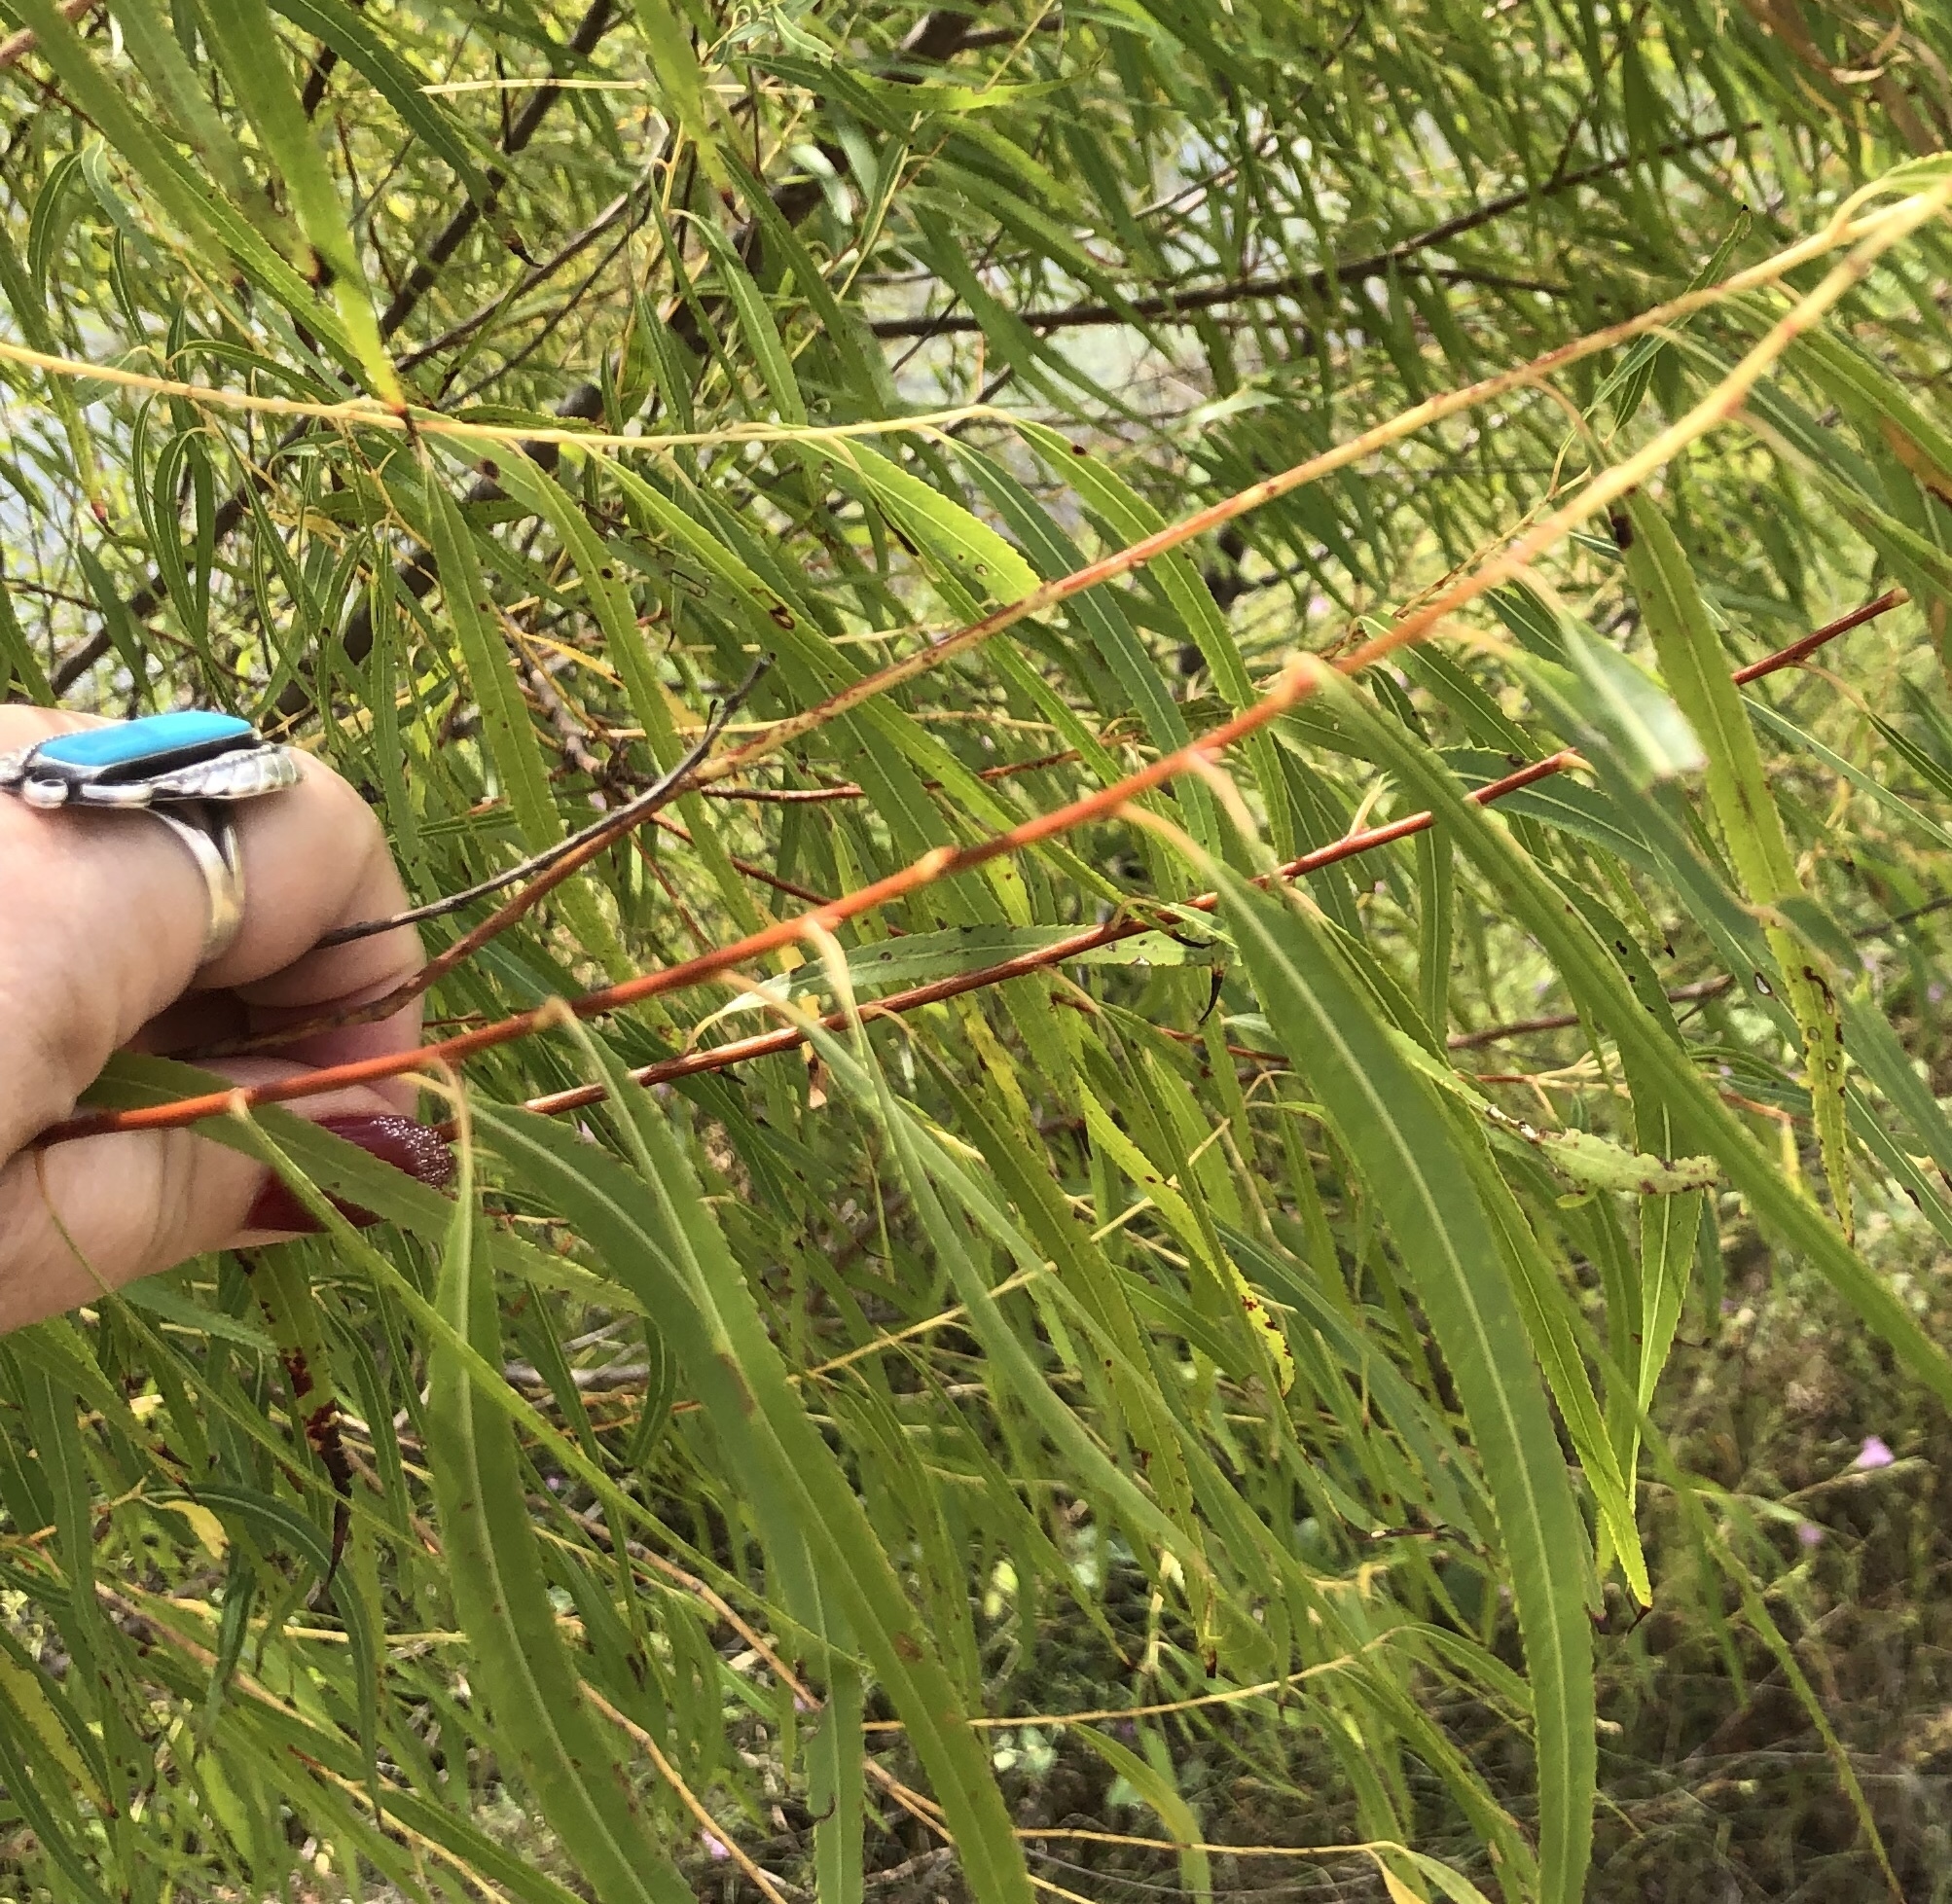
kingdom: Plantae
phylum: Tracheophyta
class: Magnoliopsida
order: Malpighiales
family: Salicaceae
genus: Salix
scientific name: Salix nigra
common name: Black willow
